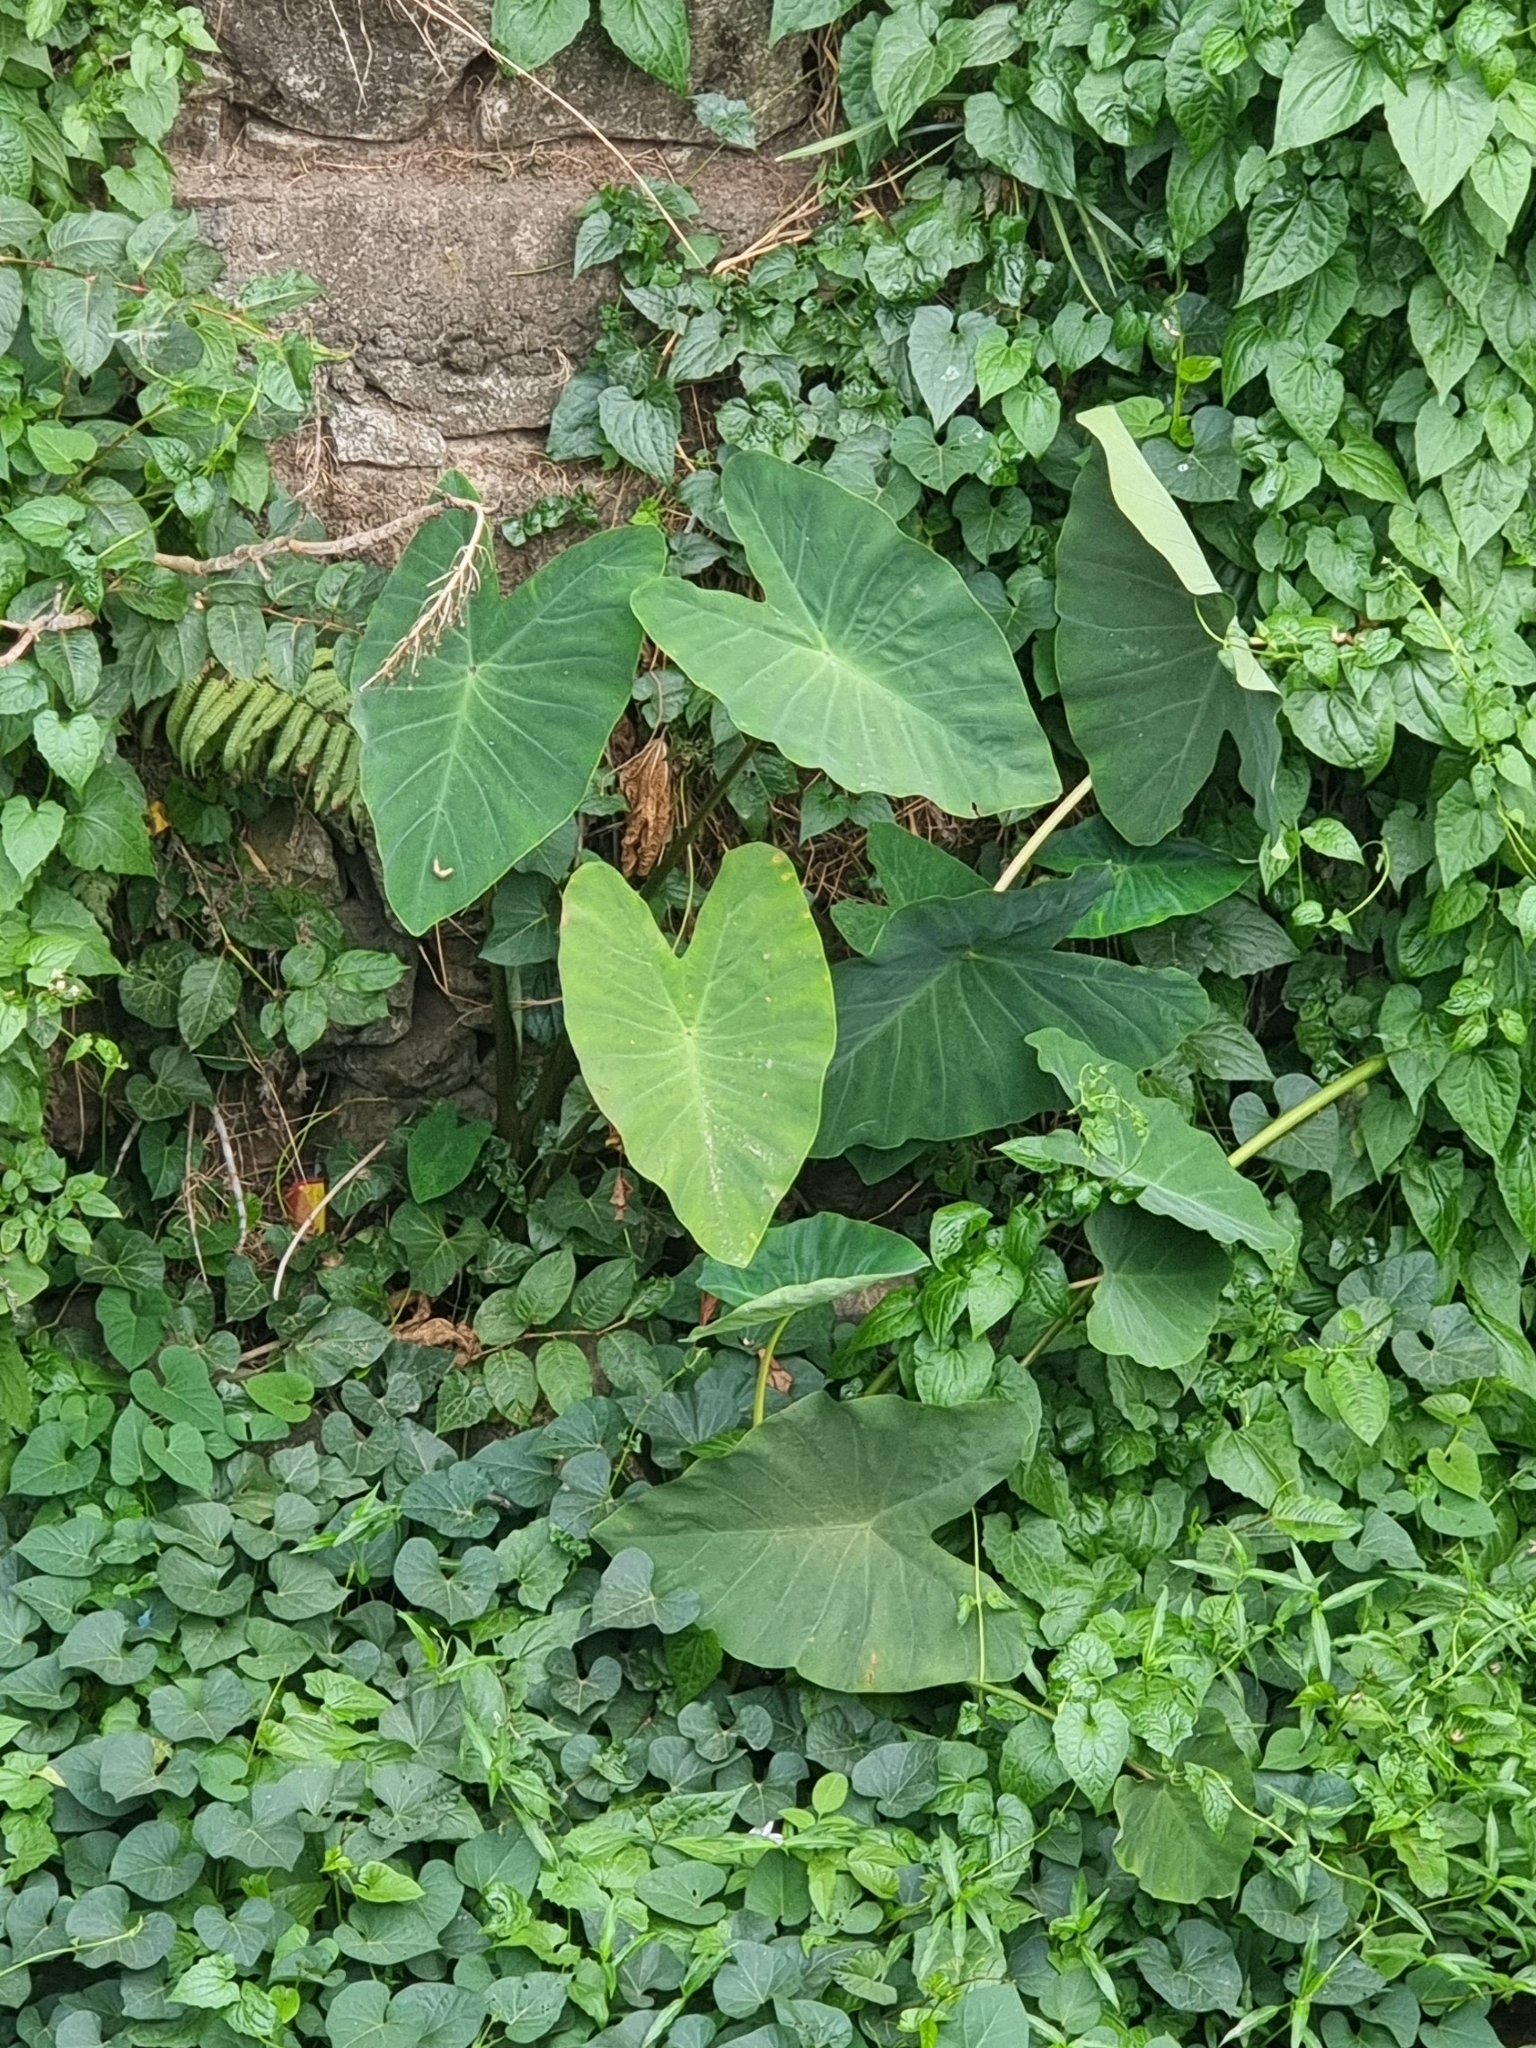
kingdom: Plantae
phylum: Tracheophyta
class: Liliopsida
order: Alismatales
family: Araceae
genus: Colocasia
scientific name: Colocasia esculenta
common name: Taro
